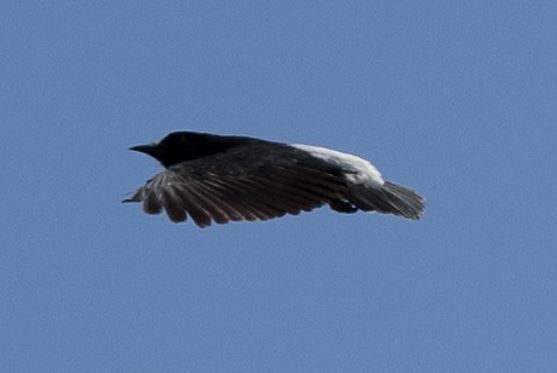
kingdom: Animalia
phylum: Chordata
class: Aves
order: Piciformes
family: Bucconidae
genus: Chelidoptera
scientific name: Chelidoptera tenebrosa
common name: Swallow-winged puffbird
